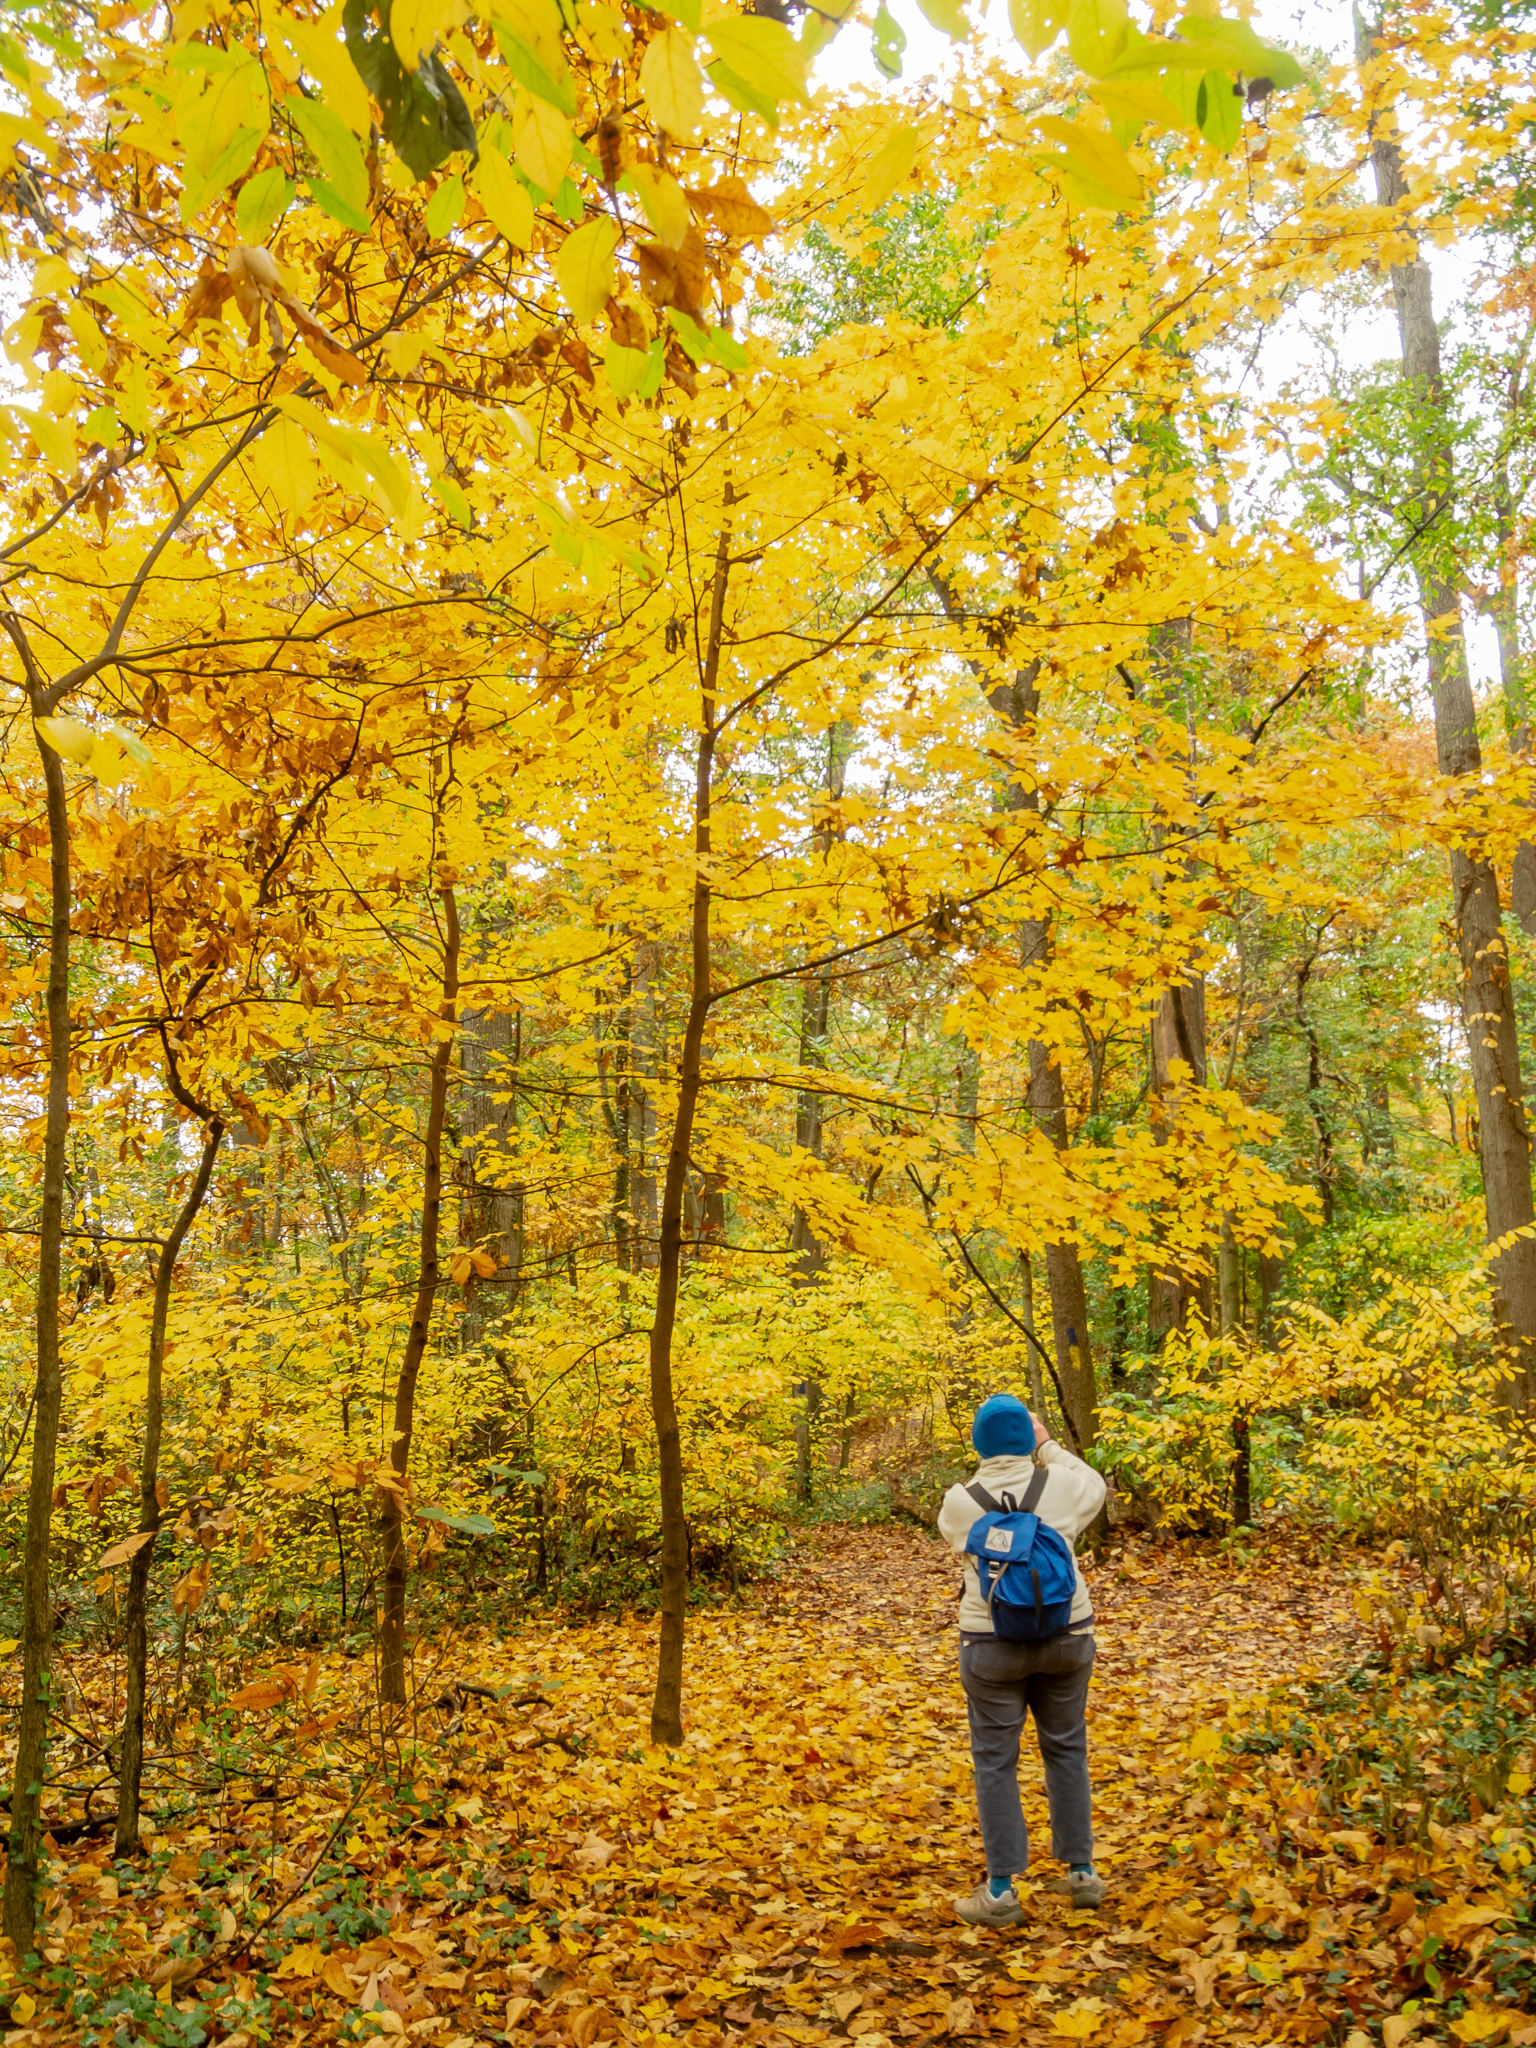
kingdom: Plantae
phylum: Tracheophyta
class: Magnoliopsida
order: Sapindales
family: Sapindaceae
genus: Acer
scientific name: Acer saccharum
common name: Sugar maple
